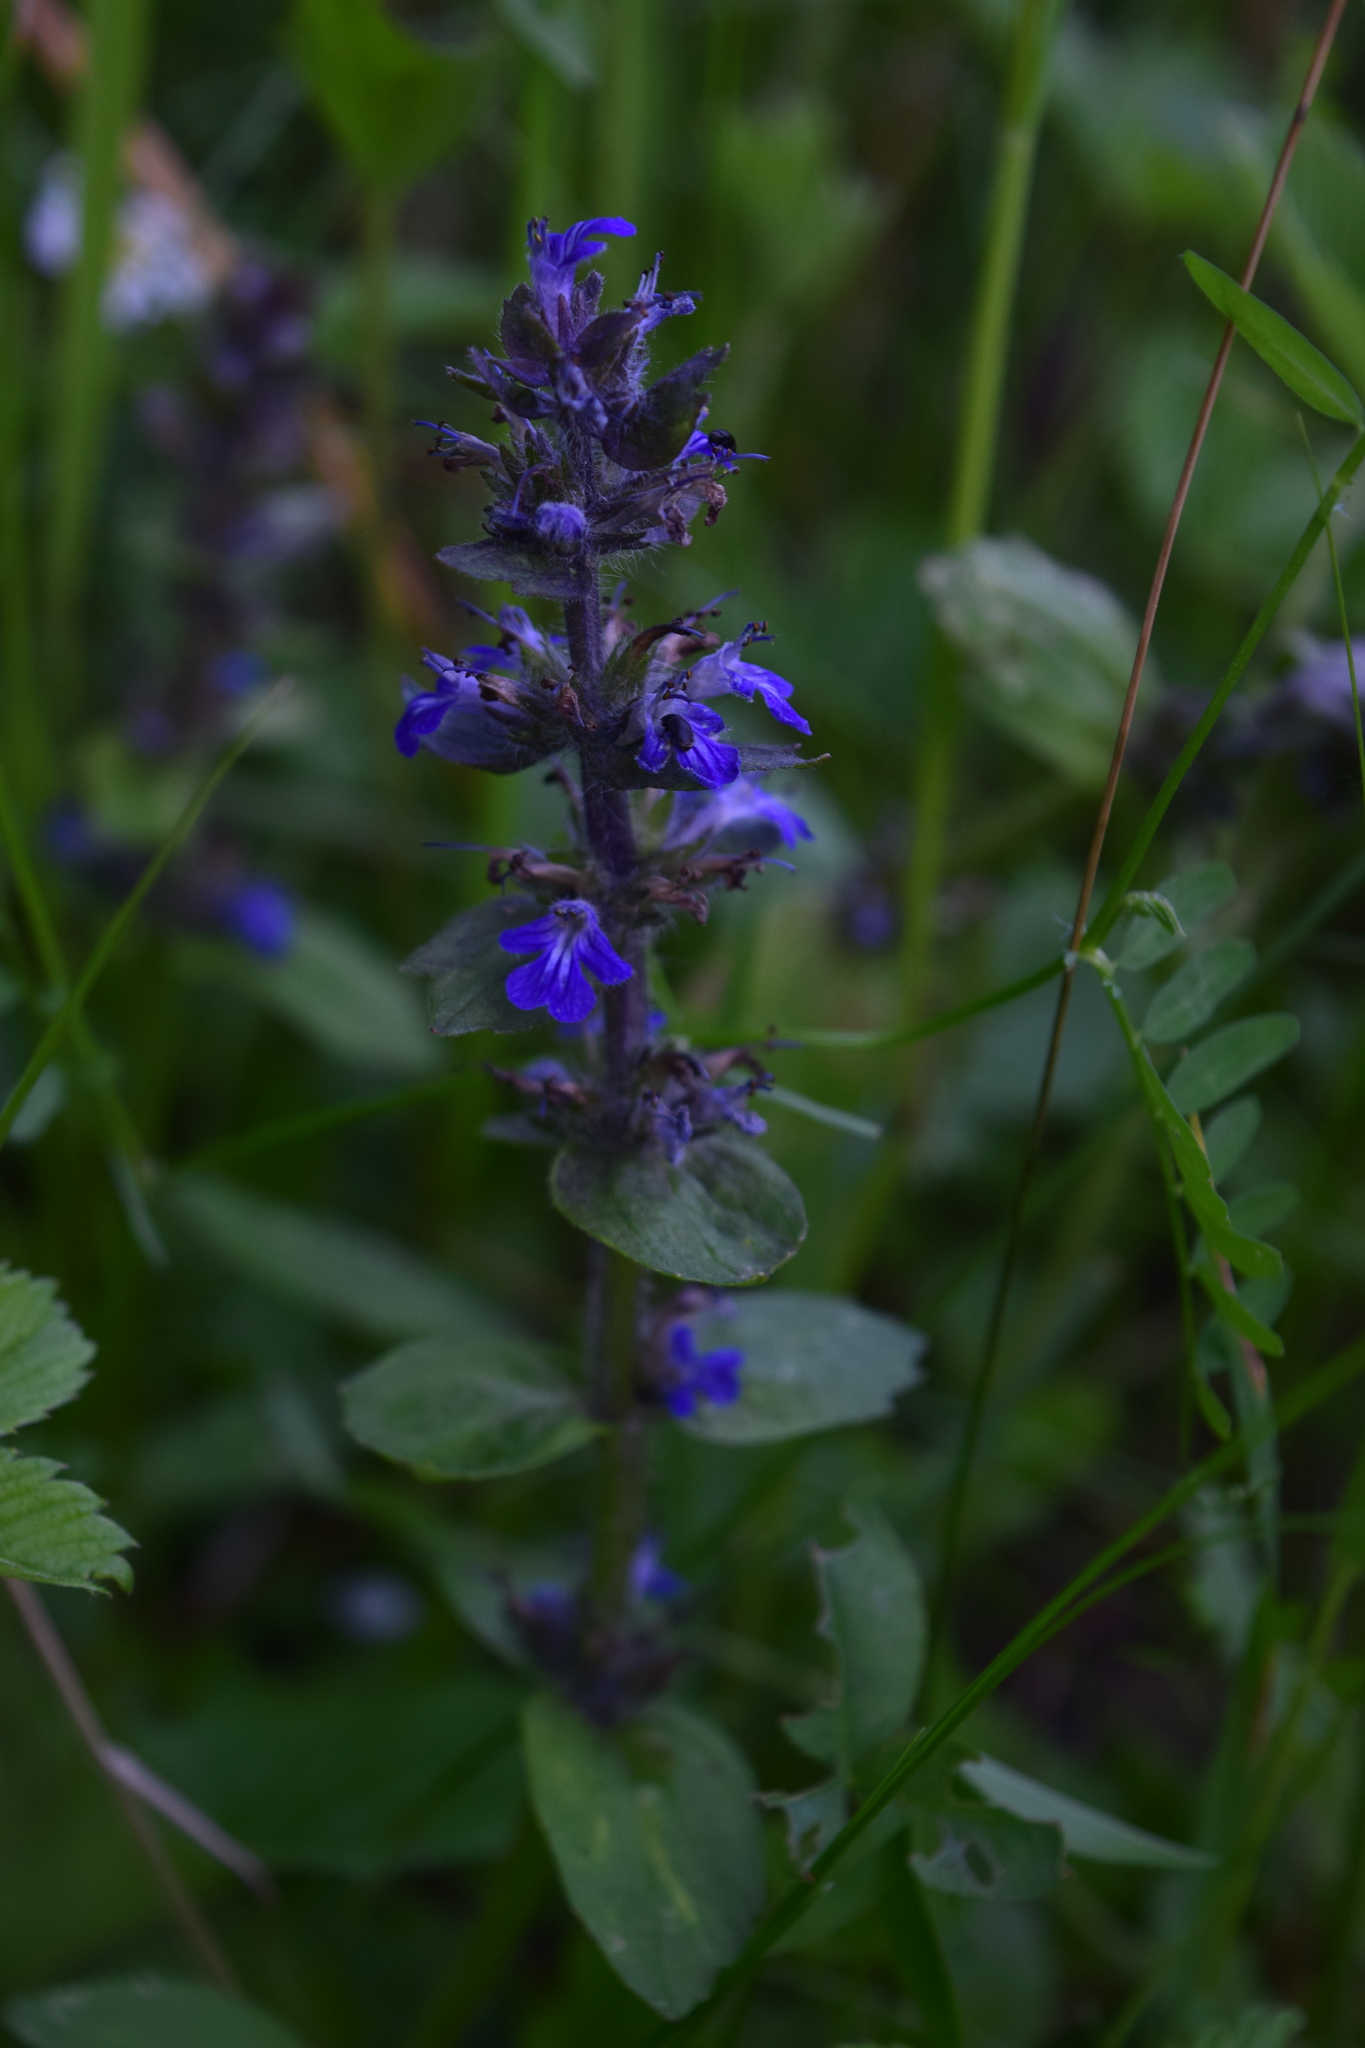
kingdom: Plantae
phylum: Tracheophyta
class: Magnoliopsida
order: Lamiales
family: Lamiaceae
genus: Ajuga
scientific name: Ajuga reptans
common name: Bugle
